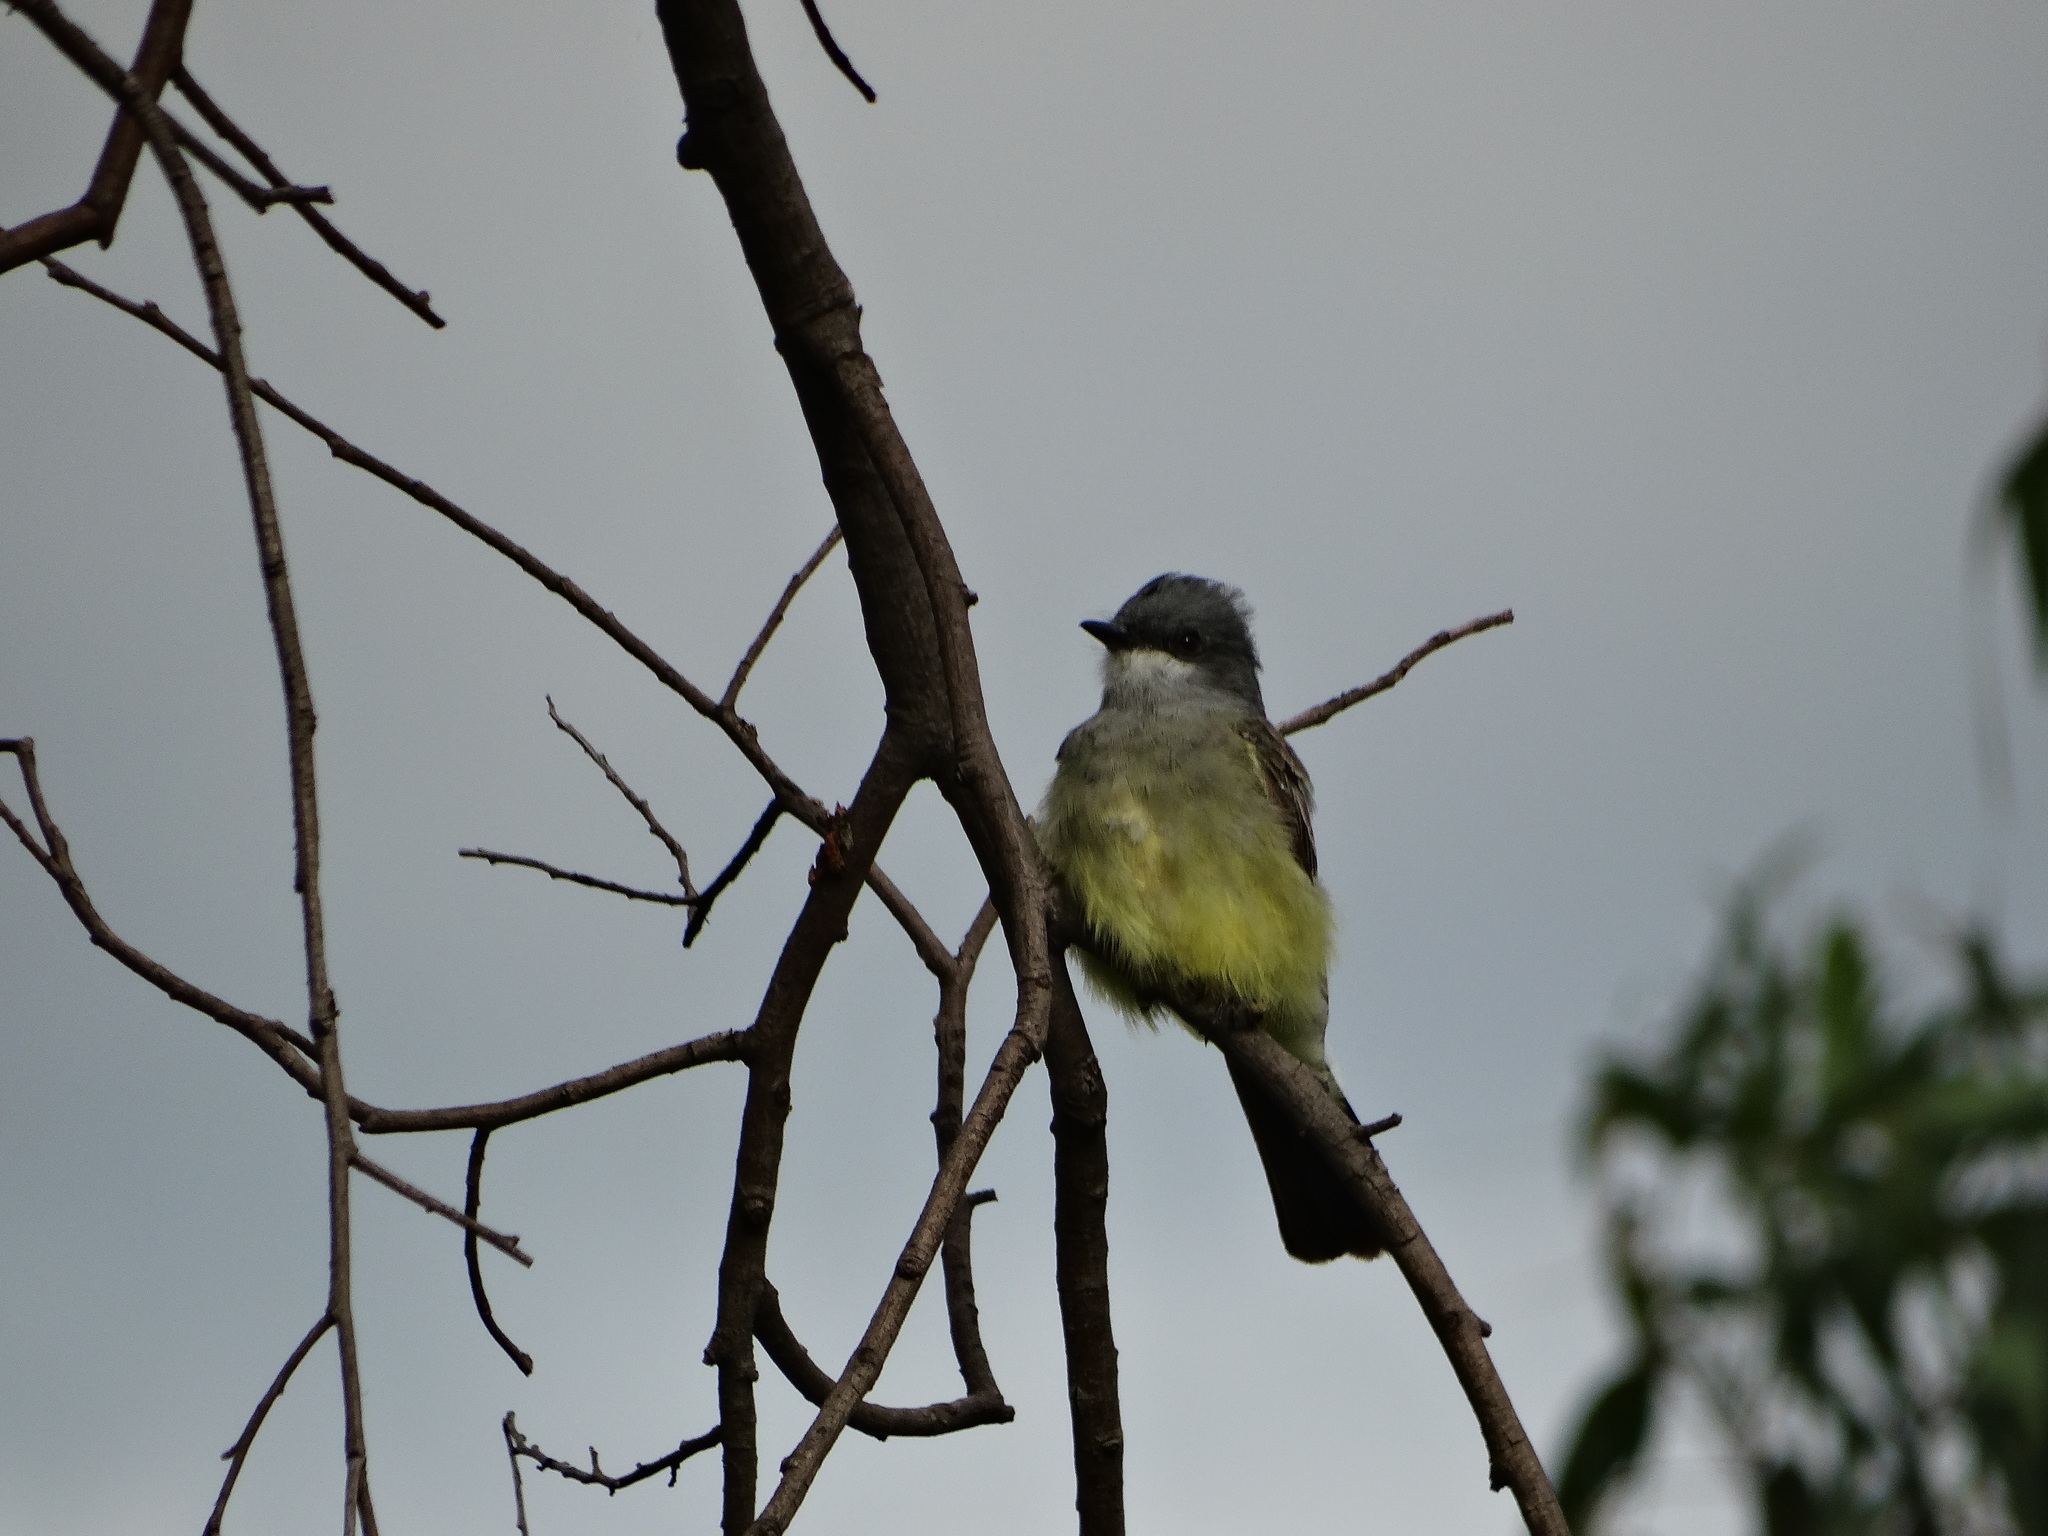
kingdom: Animalia
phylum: Chordata
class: Aves
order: Passeriformes
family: Tyrannidae
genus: Tyrannus
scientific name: Tyrannus vociferans
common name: Cassin's kingbird
